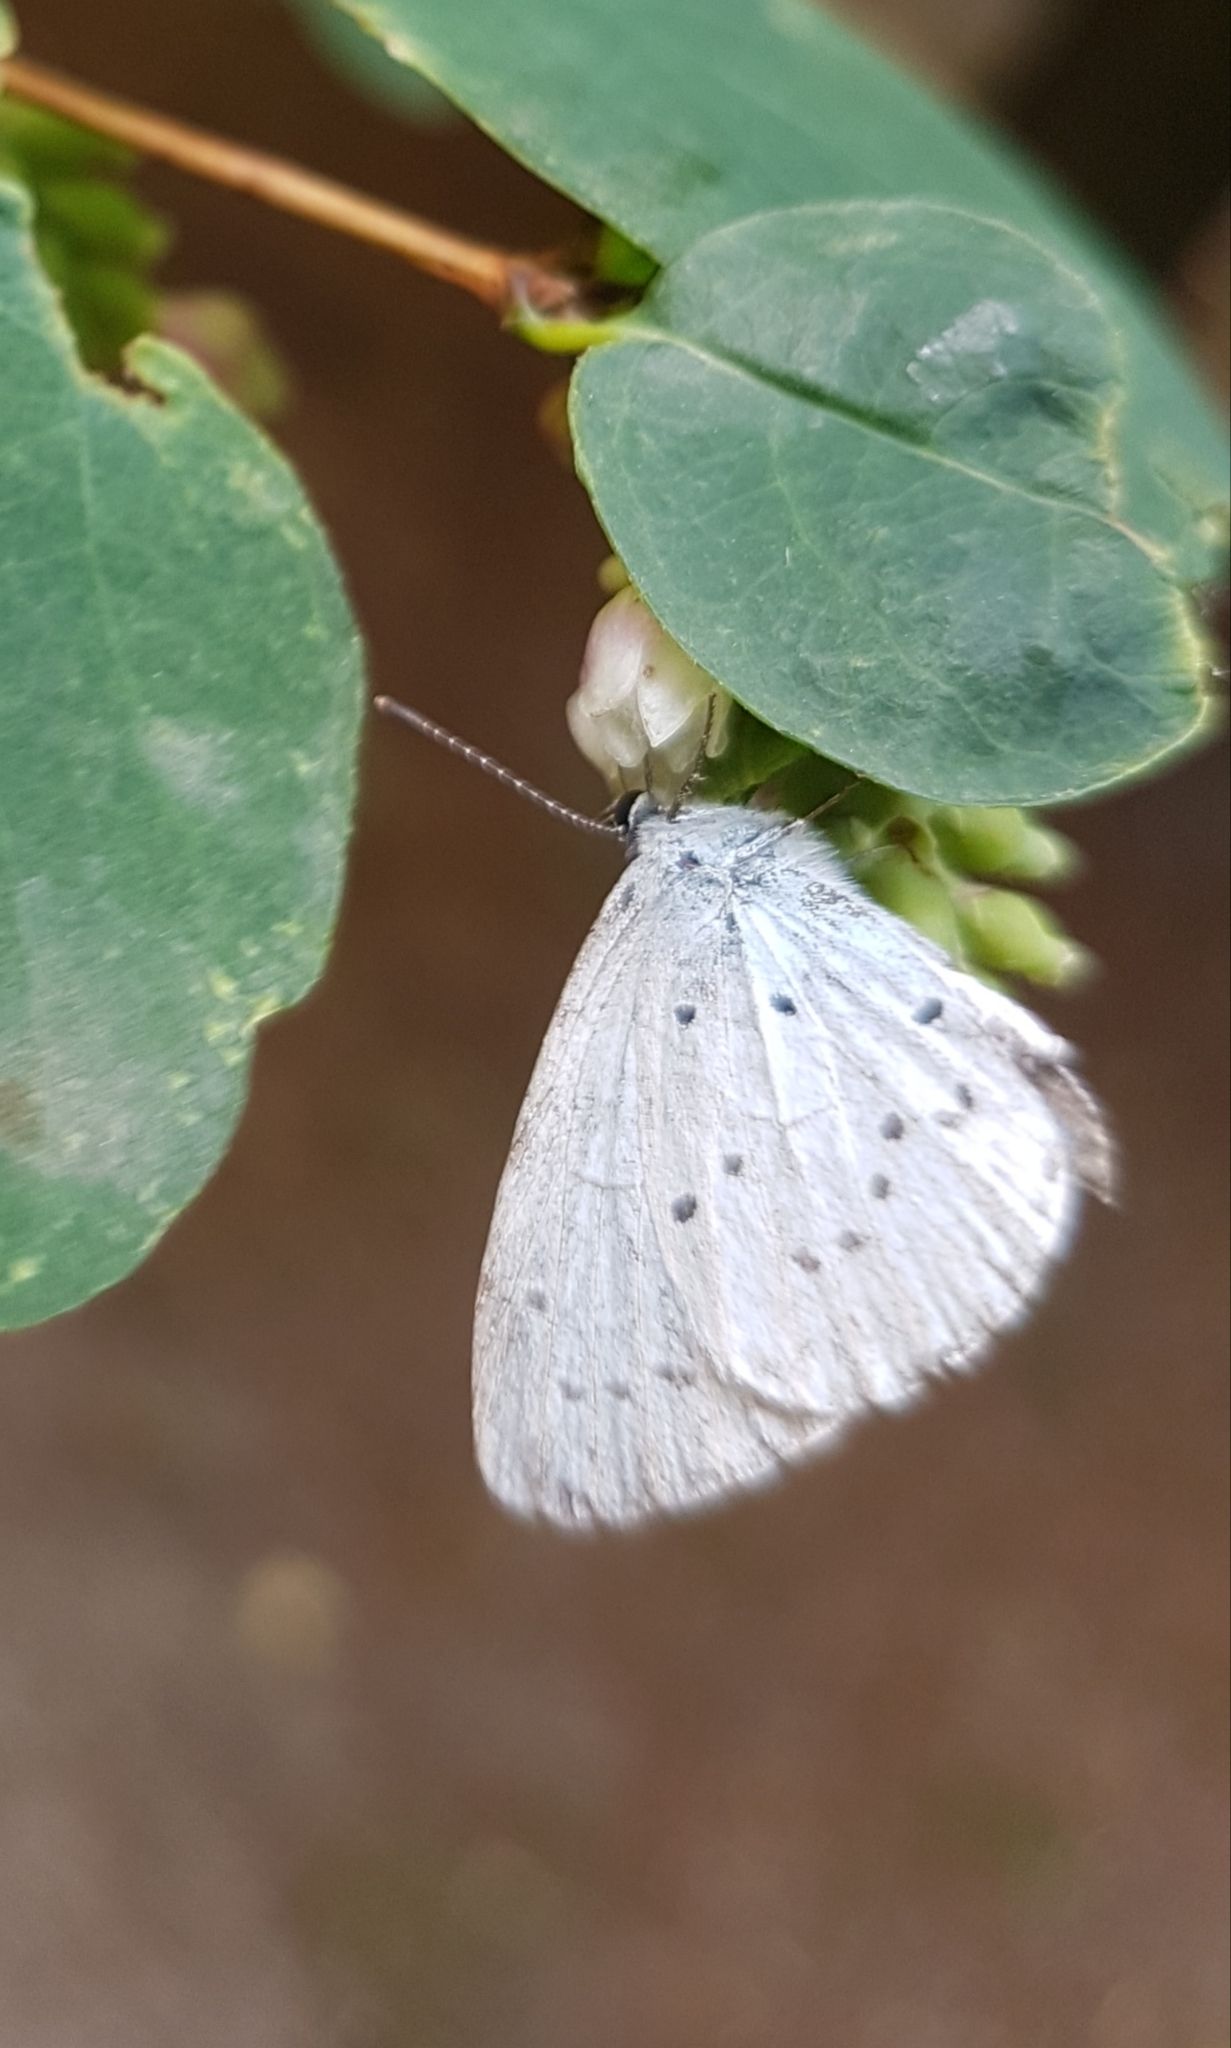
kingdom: Animalia
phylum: Arthropoda
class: Insecta
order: Lepidoptera
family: Lycaenidae
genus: Celastrina
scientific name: Celastrina argiolus
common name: Holly blue
